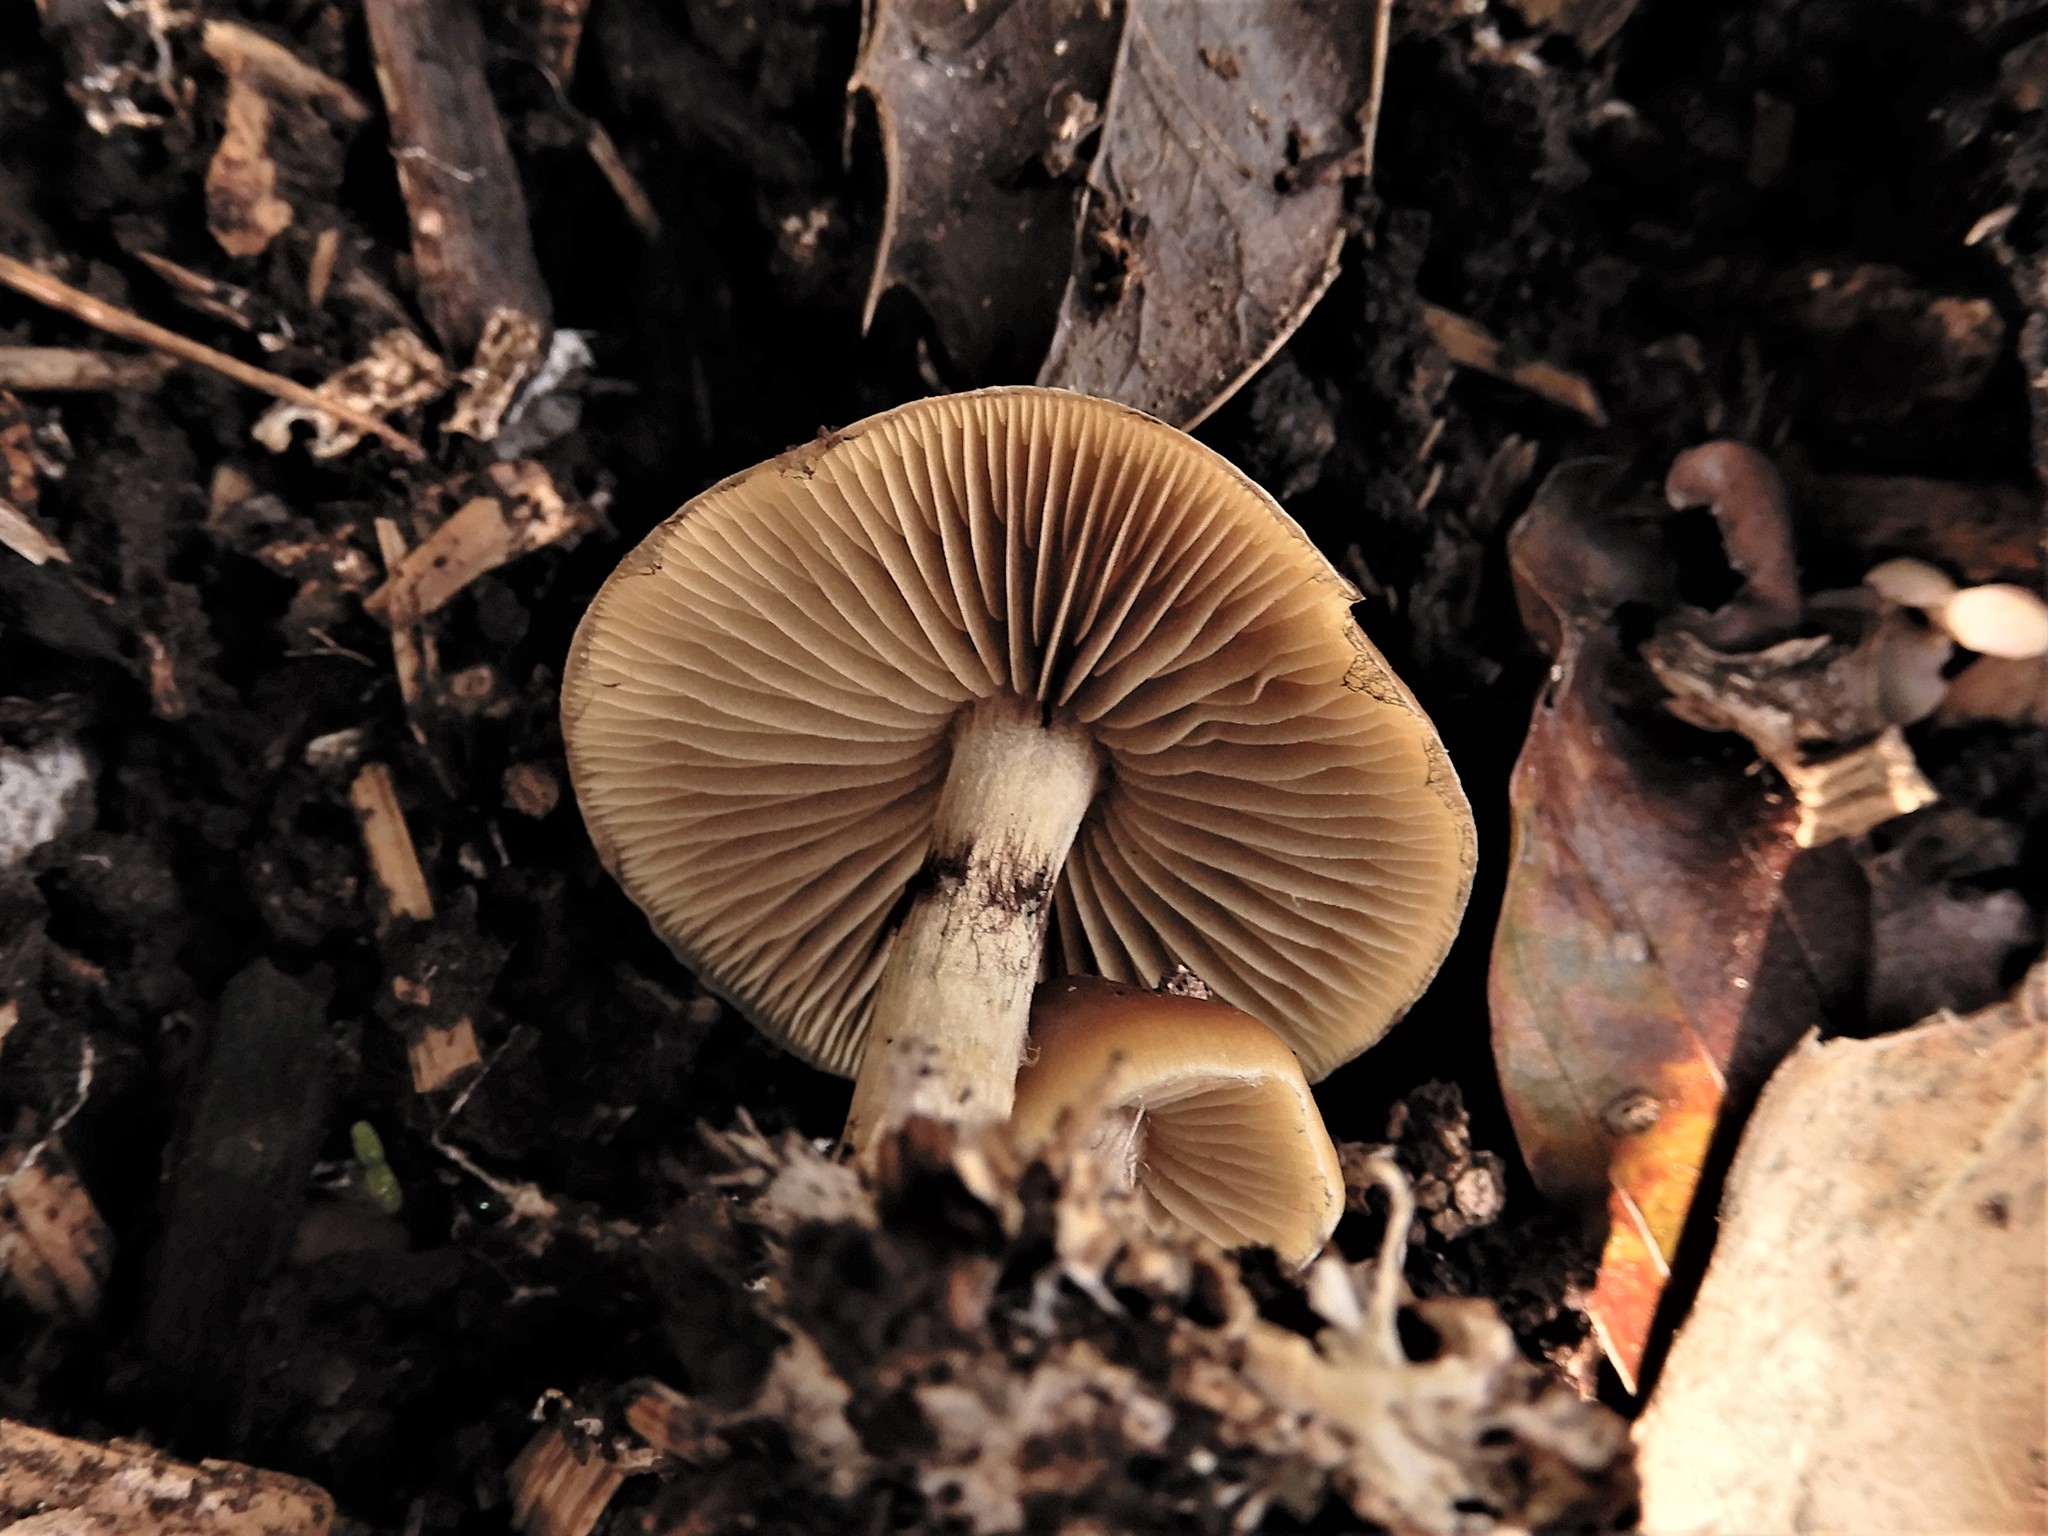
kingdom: Fungi
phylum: Basidiomycota
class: Agaricomycetes
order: Agaricales
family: Hymenogastraceae
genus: Psilocybe
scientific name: Psilocybe subaeruginosa
